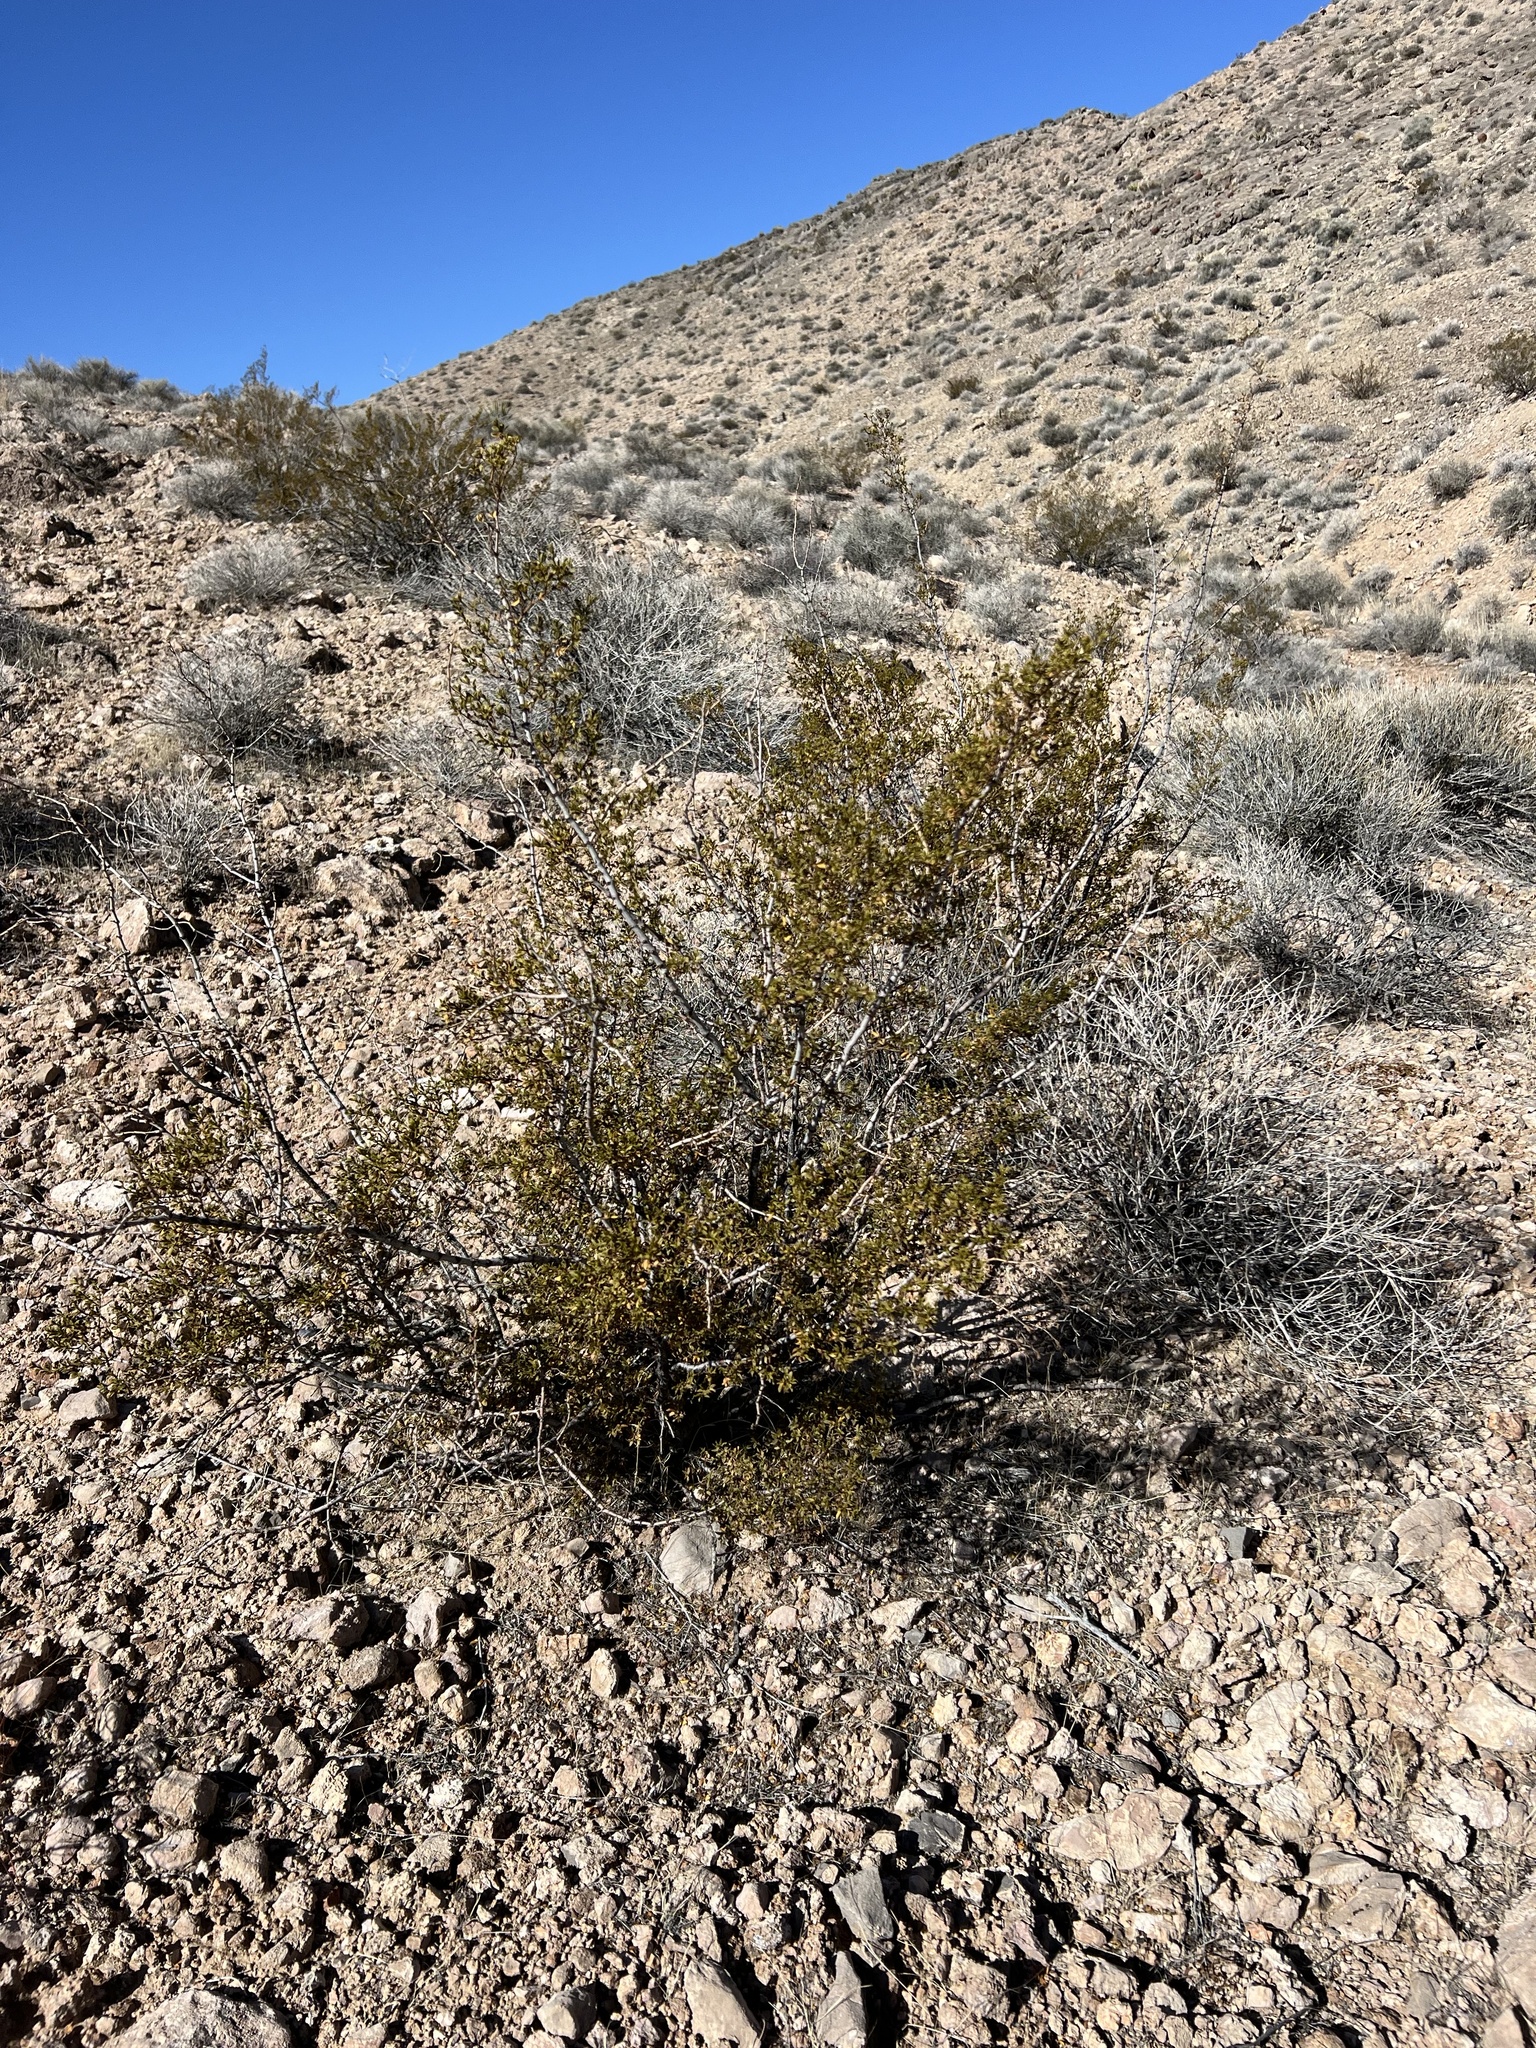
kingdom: Plantae
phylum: Tracheophyta
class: Magnoliopsida
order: Zygophyllales
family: Zygophyllaceae
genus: Larrea
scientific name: Larrea tridentata
